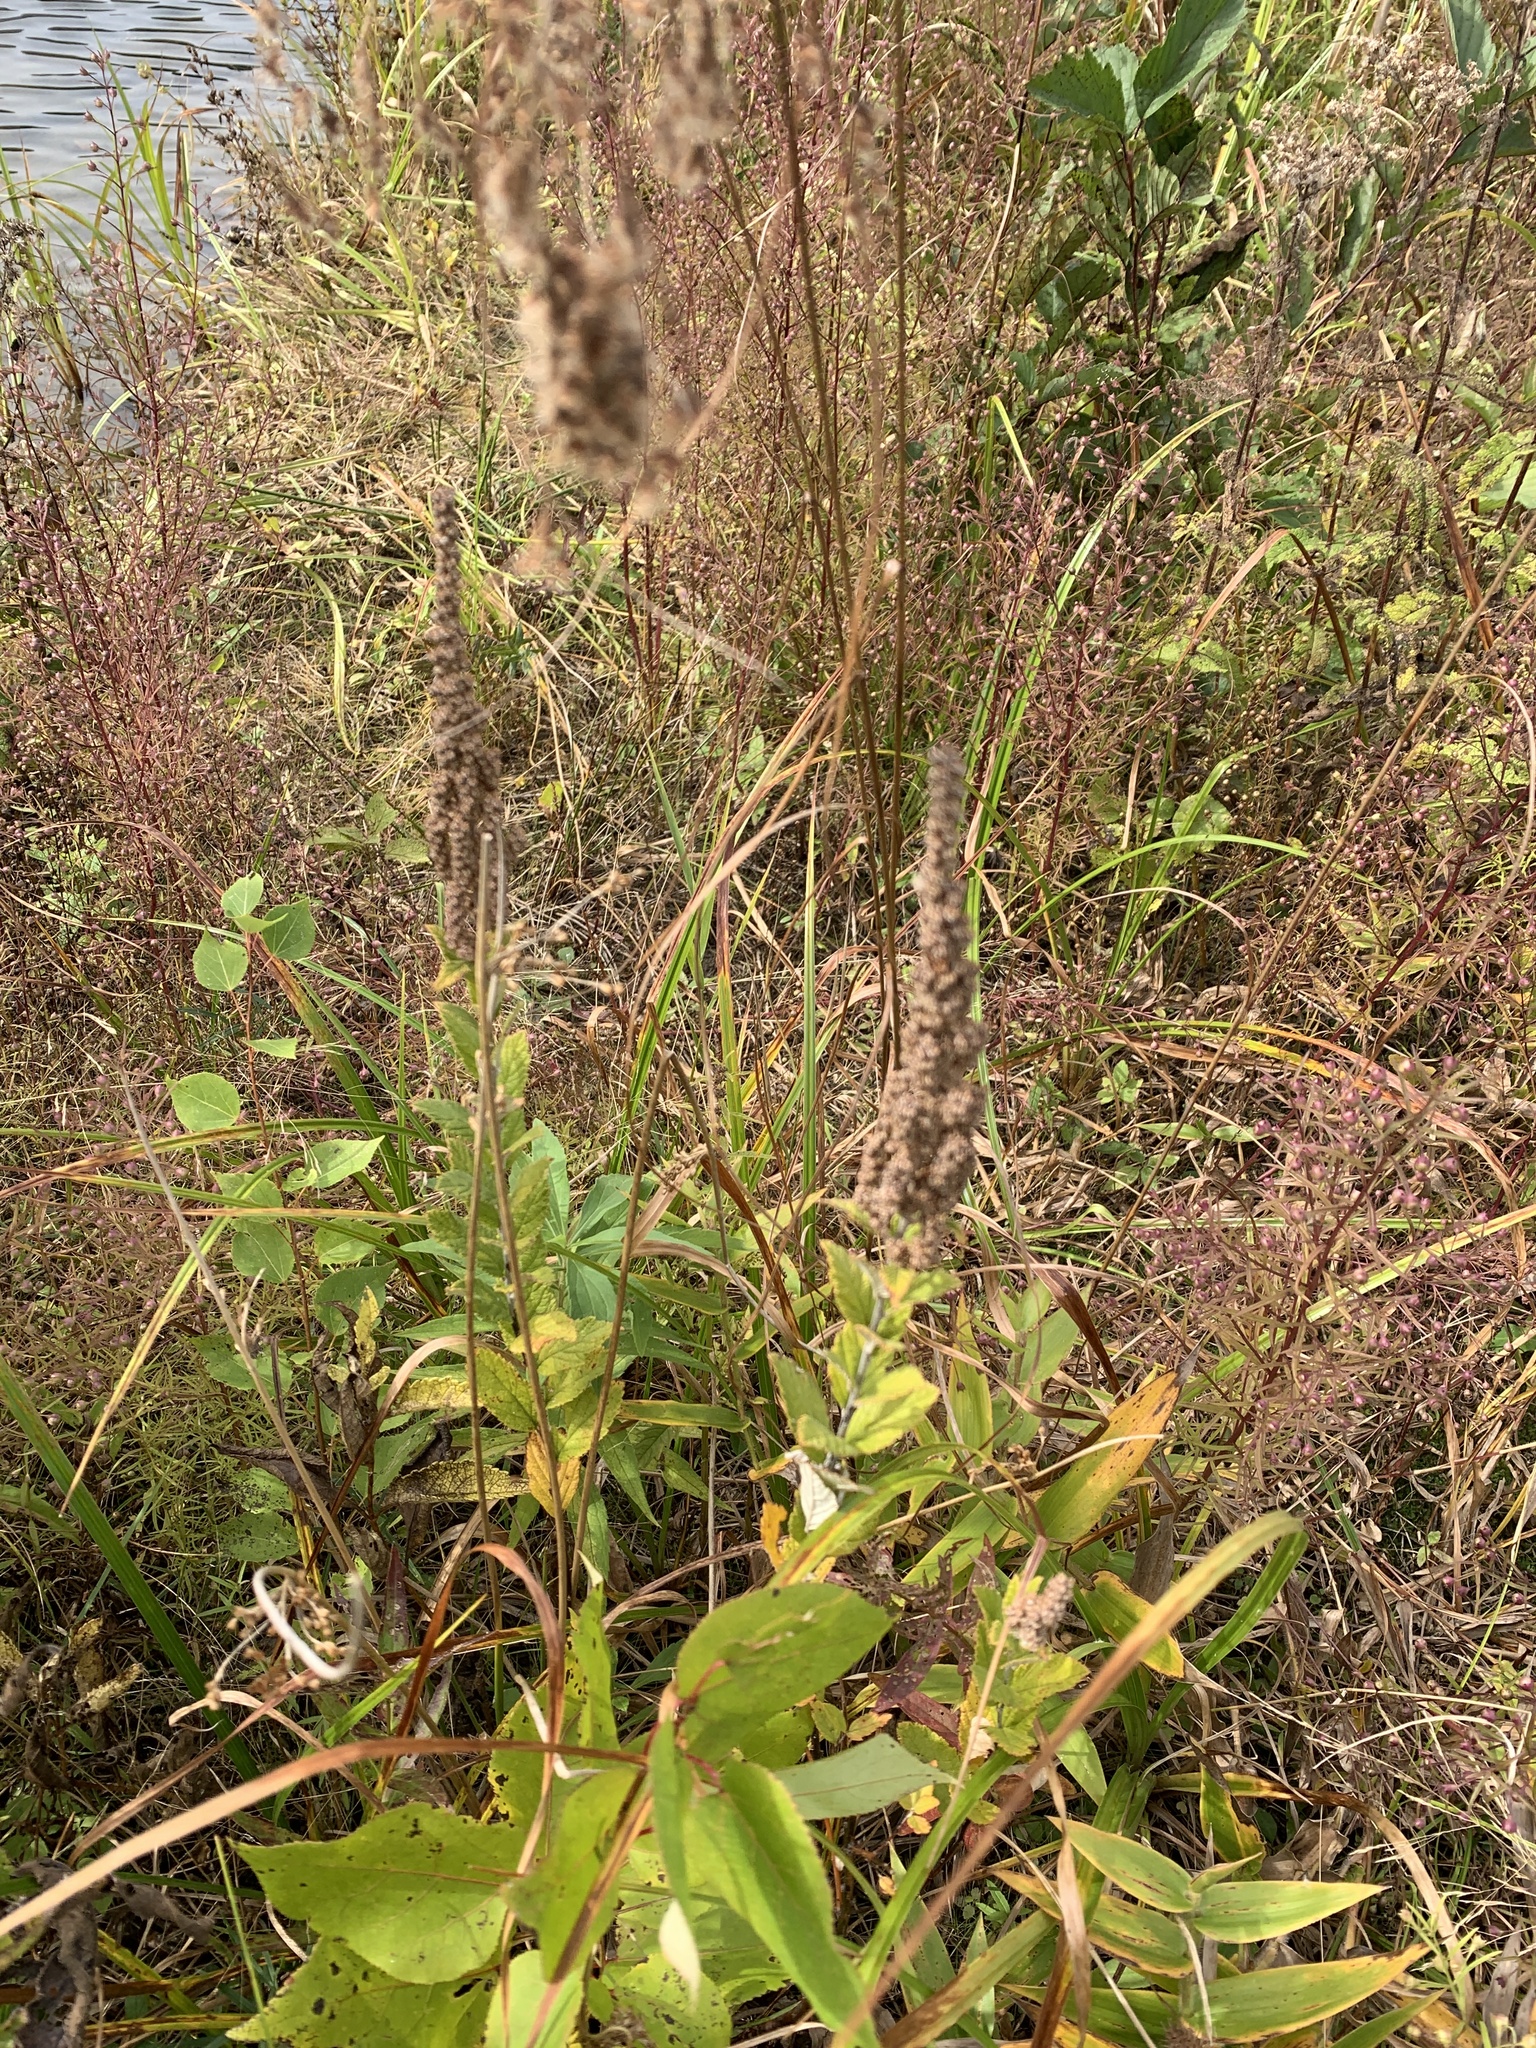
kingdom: Plantae
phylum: Tracheophyta
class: Magnoliopsida
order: Rosales
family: Rosaceae
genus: Spiraea
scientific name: Spiraea tomentosa
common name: Hardhack
